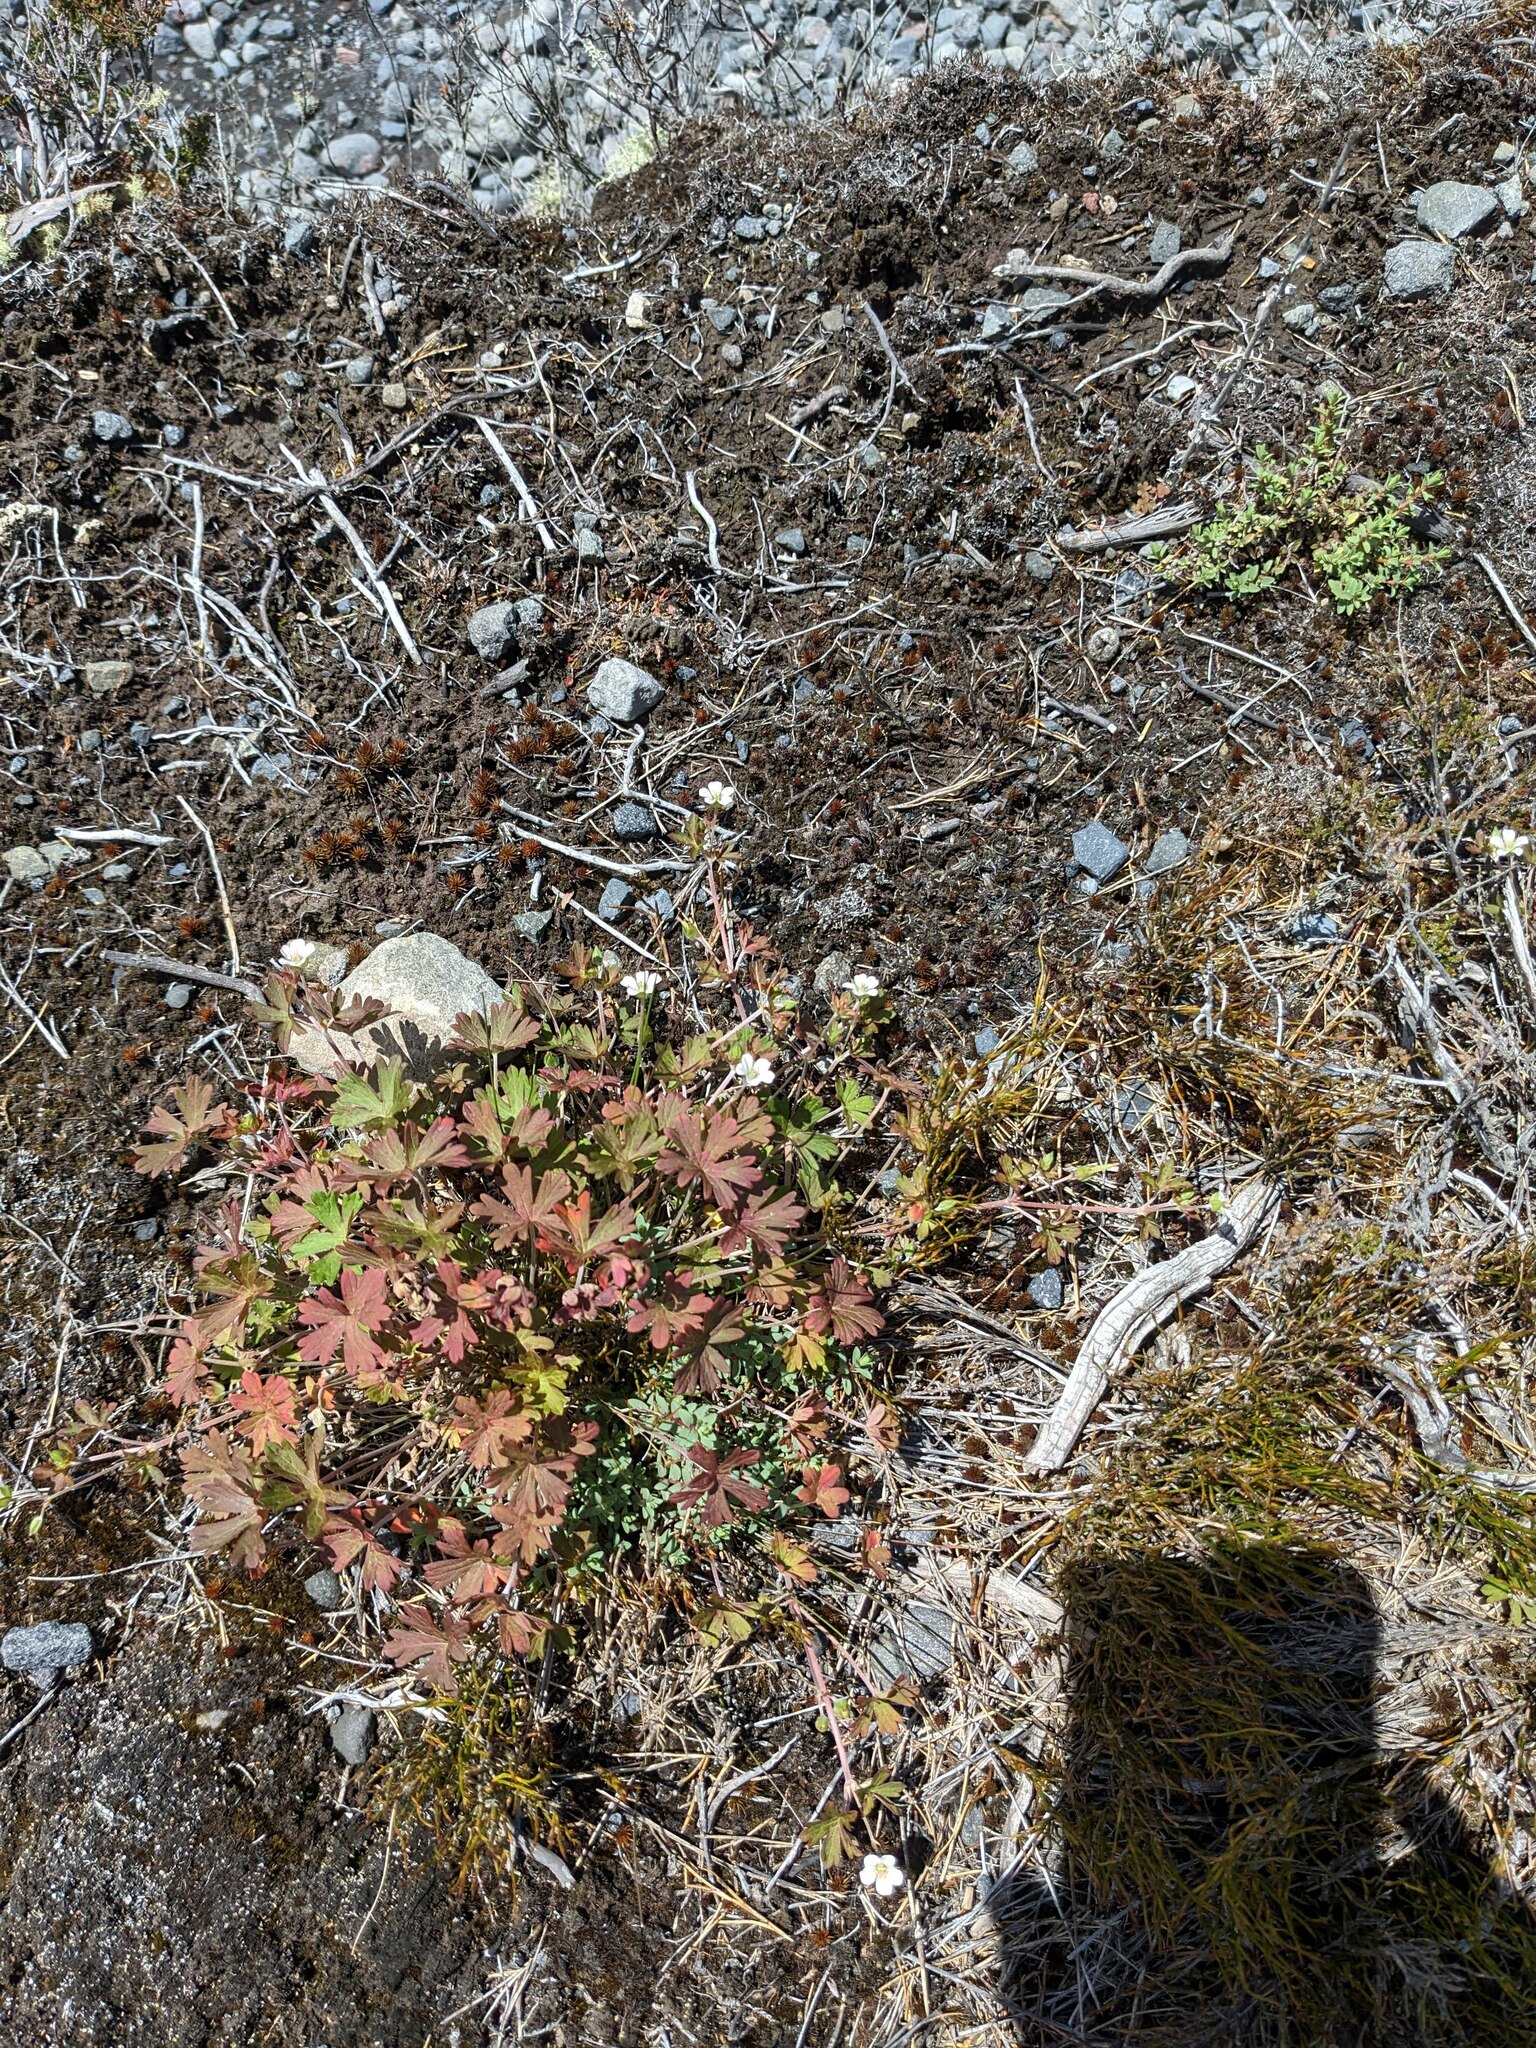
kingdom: Plantae
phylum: Tracheophyta
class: Magnoliopsida
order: Geraniales
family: Geraniaceae
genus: Geranium
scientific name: Geranium brevicaule
